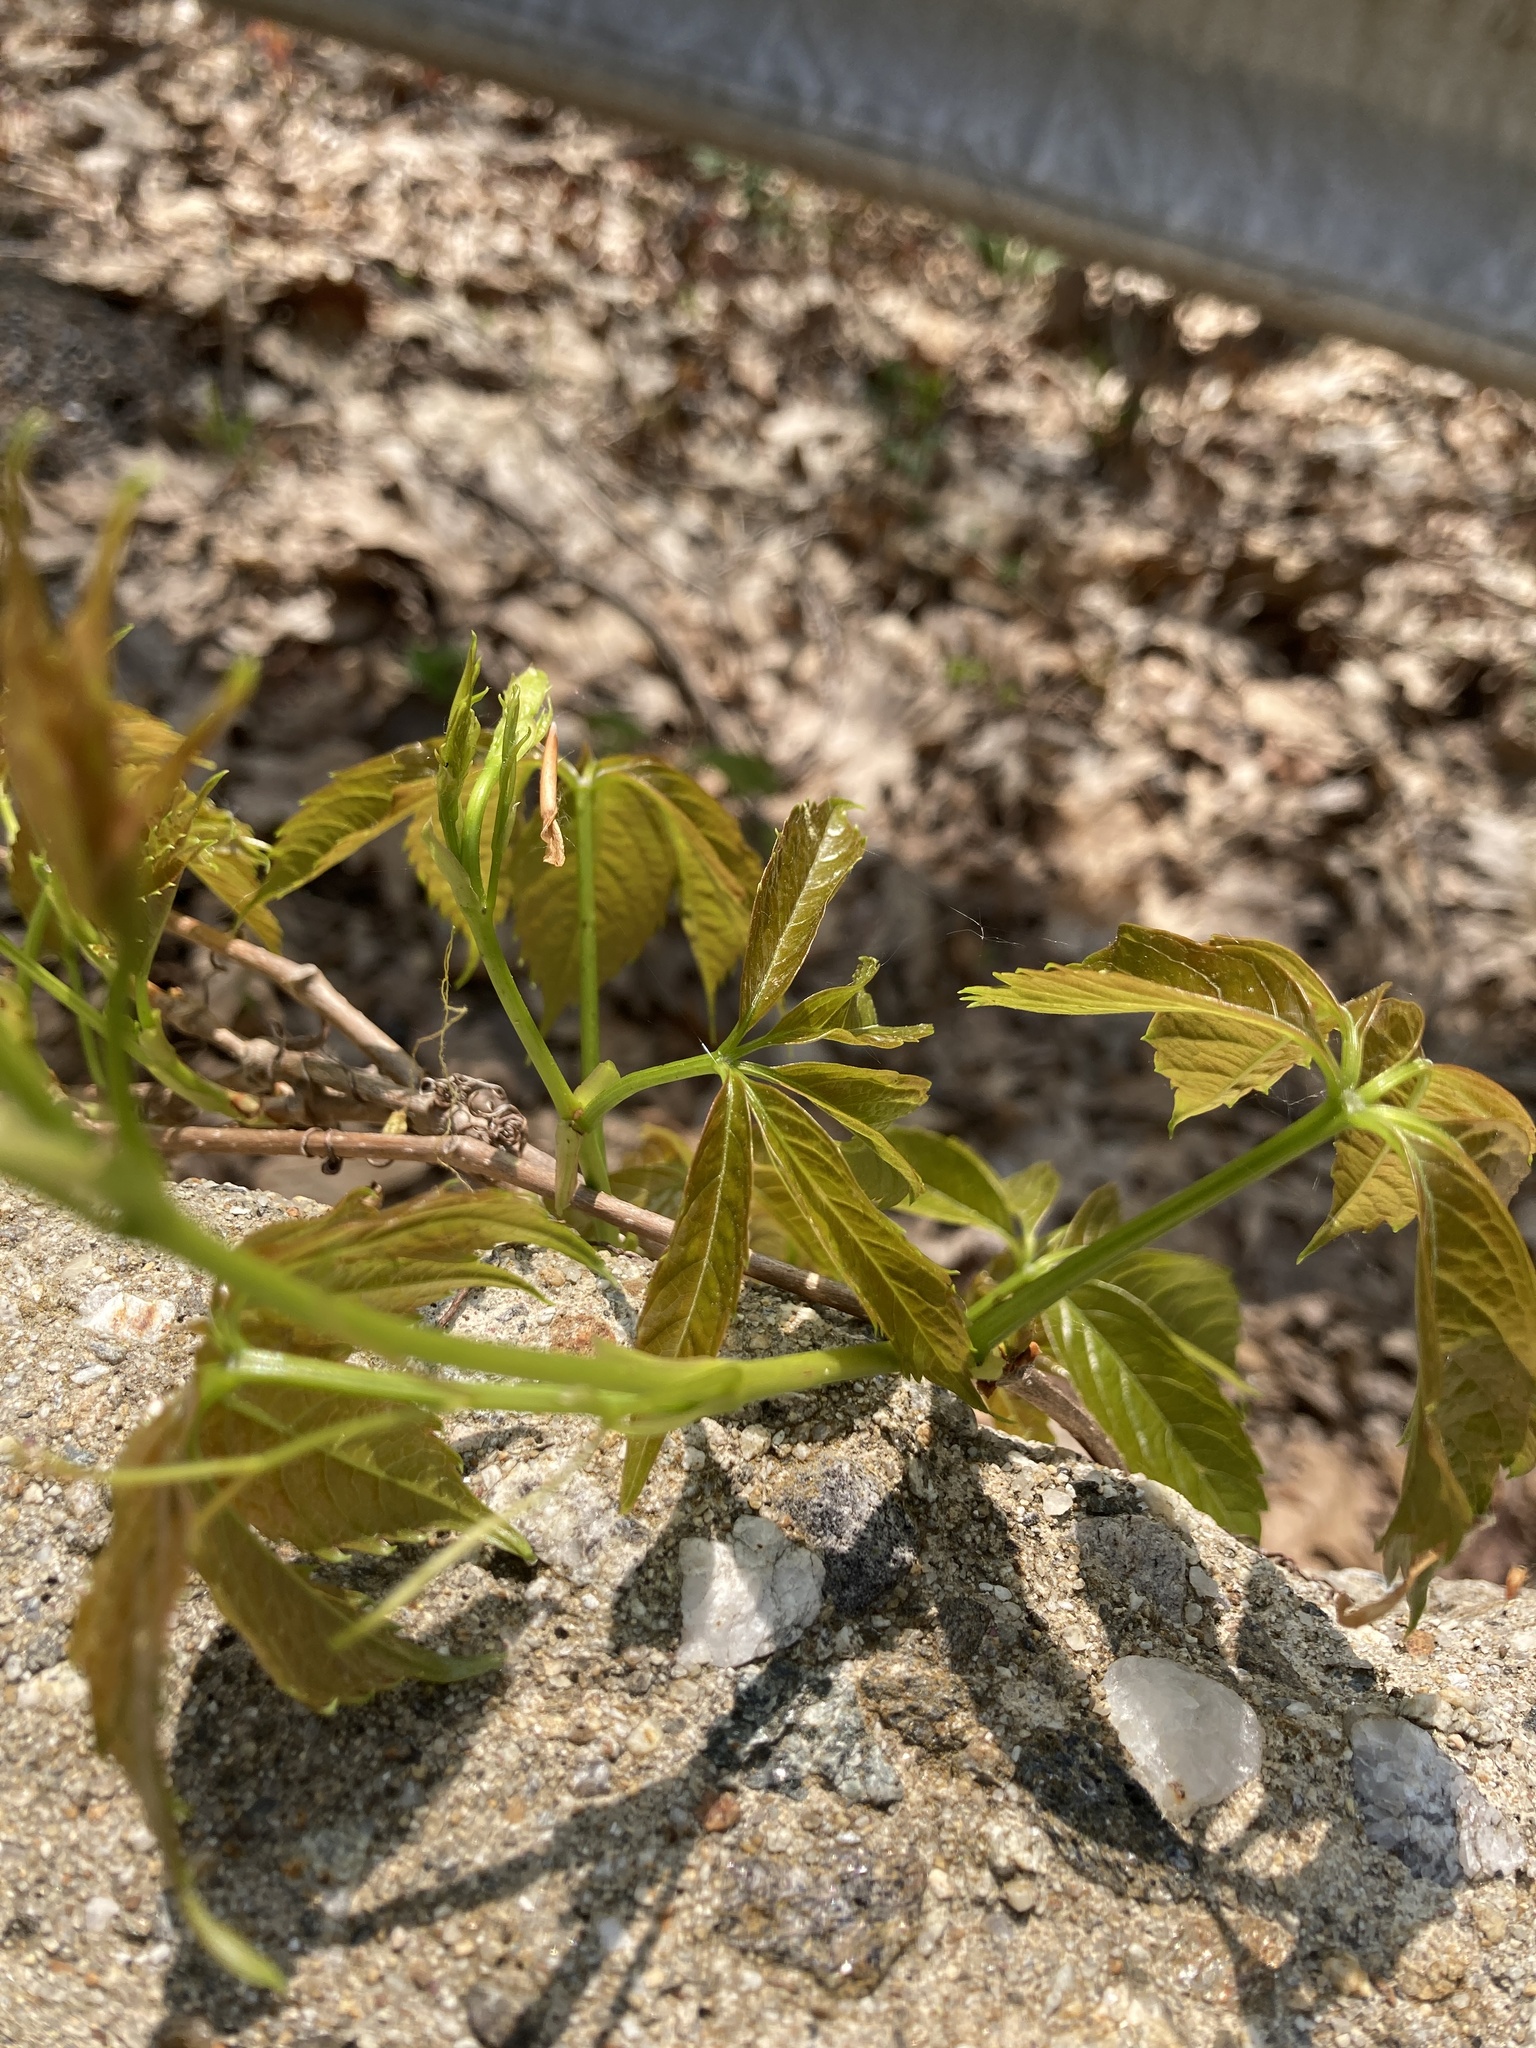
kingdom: Plantae
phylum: Tracheophyta
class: Magnoliopsida
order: Vitales
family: Vitaceae
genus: Parthenocissus
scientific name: Parthenocissus quinquefolia
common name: Virginia-creeper
